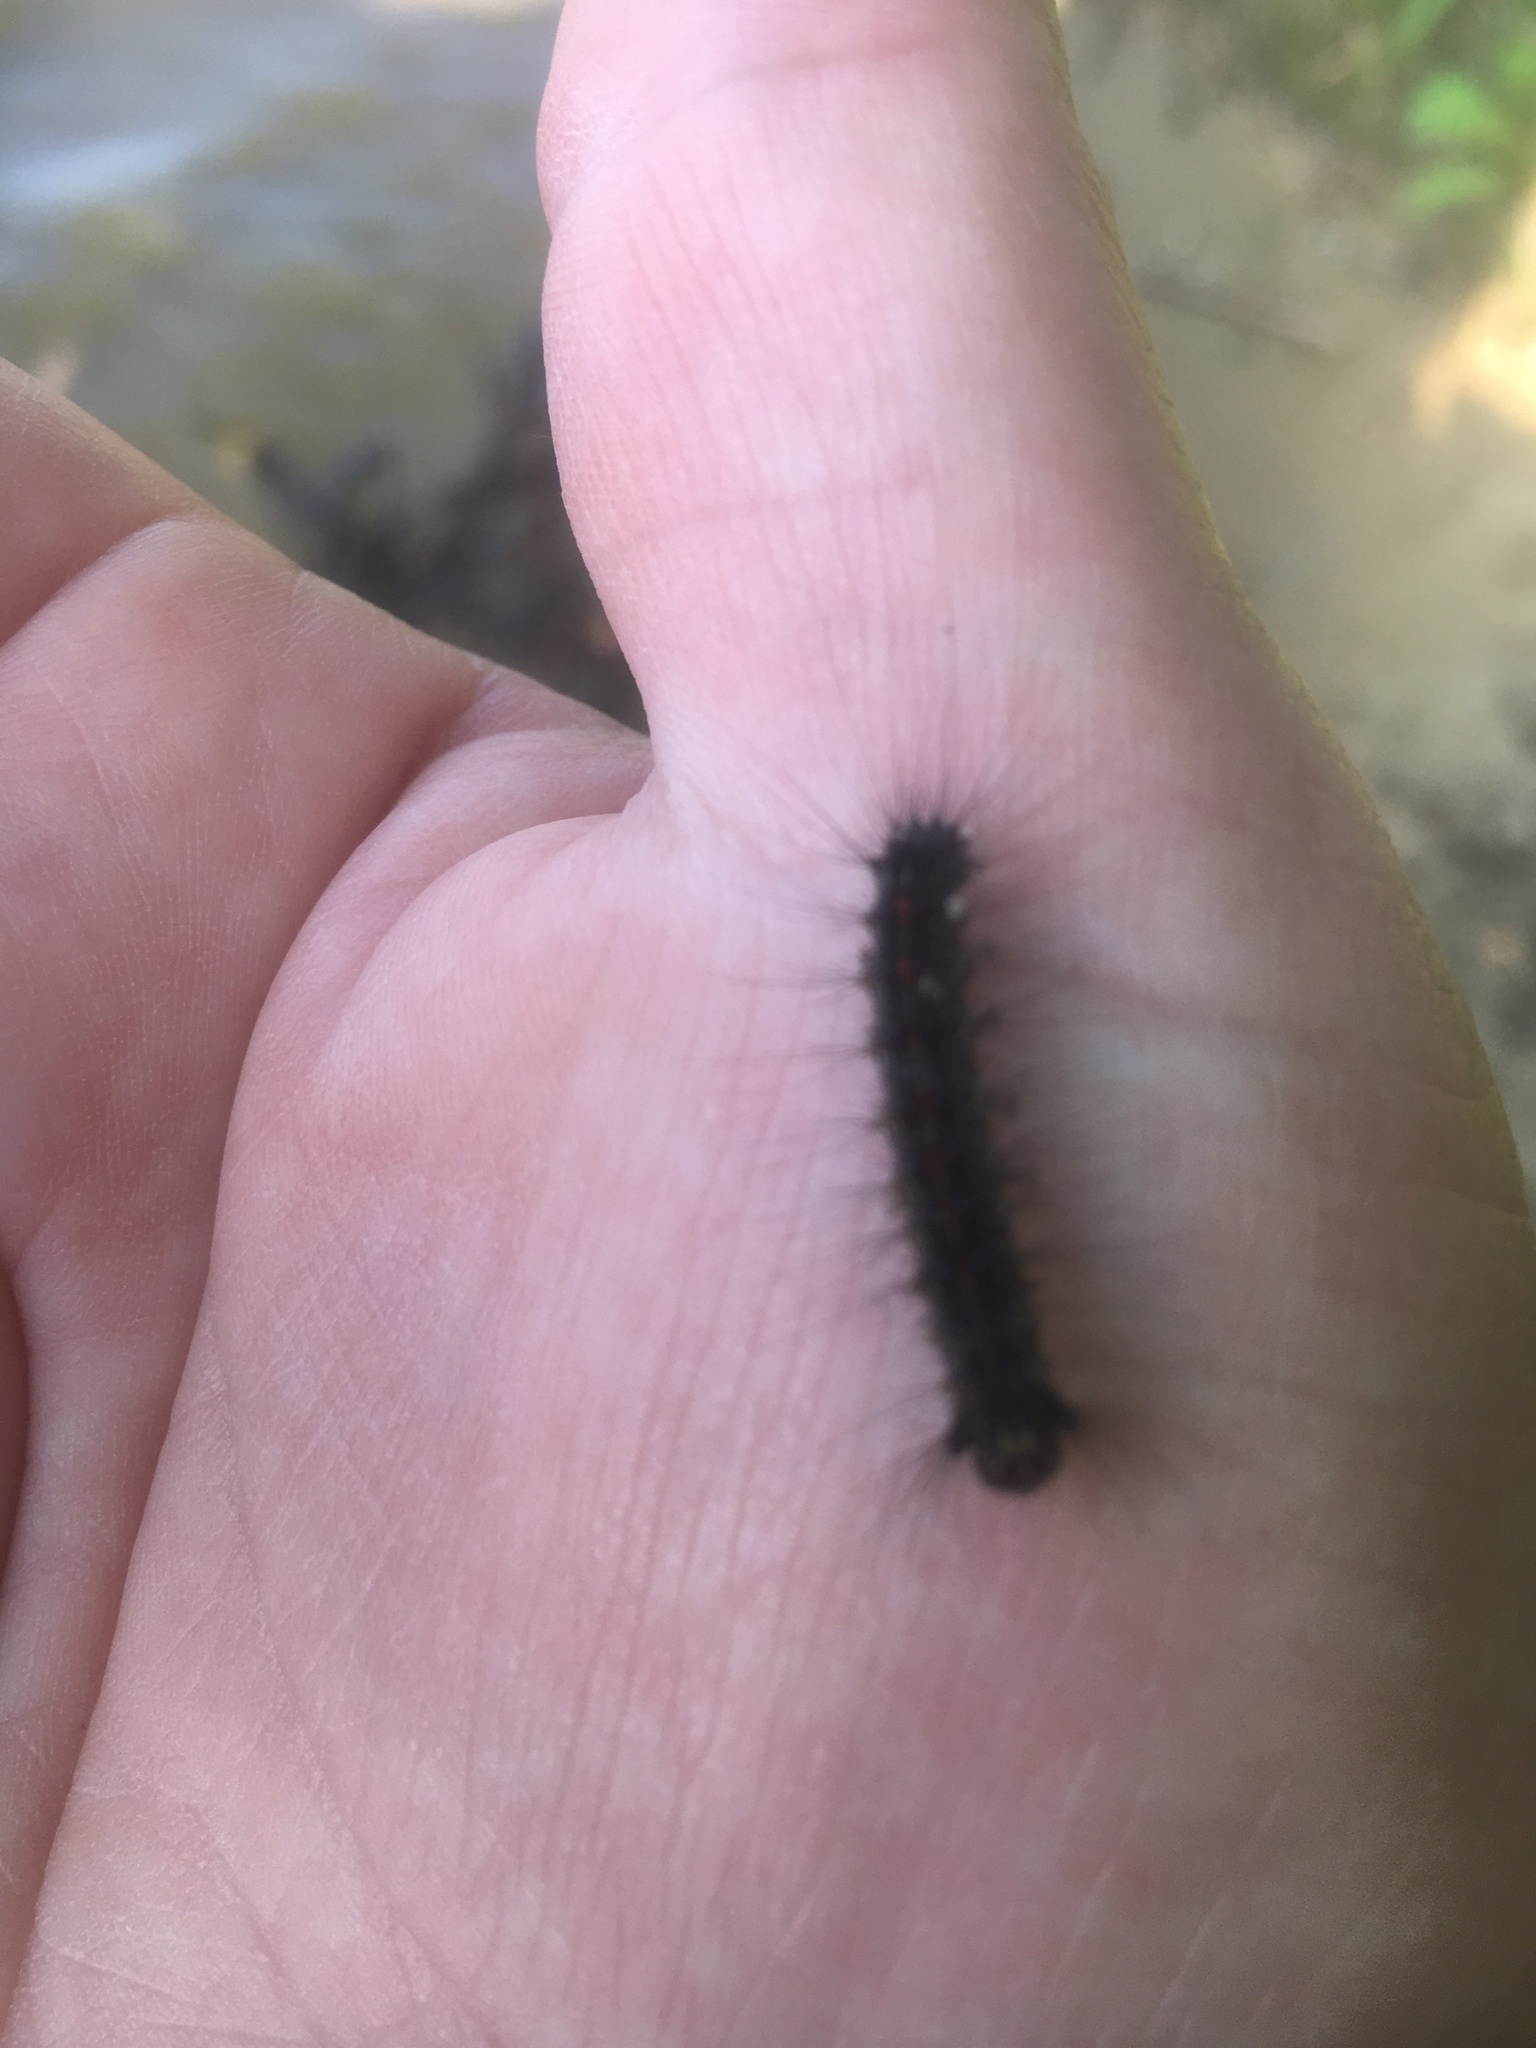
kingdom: Animalia
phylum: Arthropoda
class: Insecta
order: Lepidoptera
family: Erebidae
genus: Lymantria
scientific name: Lymantria dispar
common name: Gypsy moth
